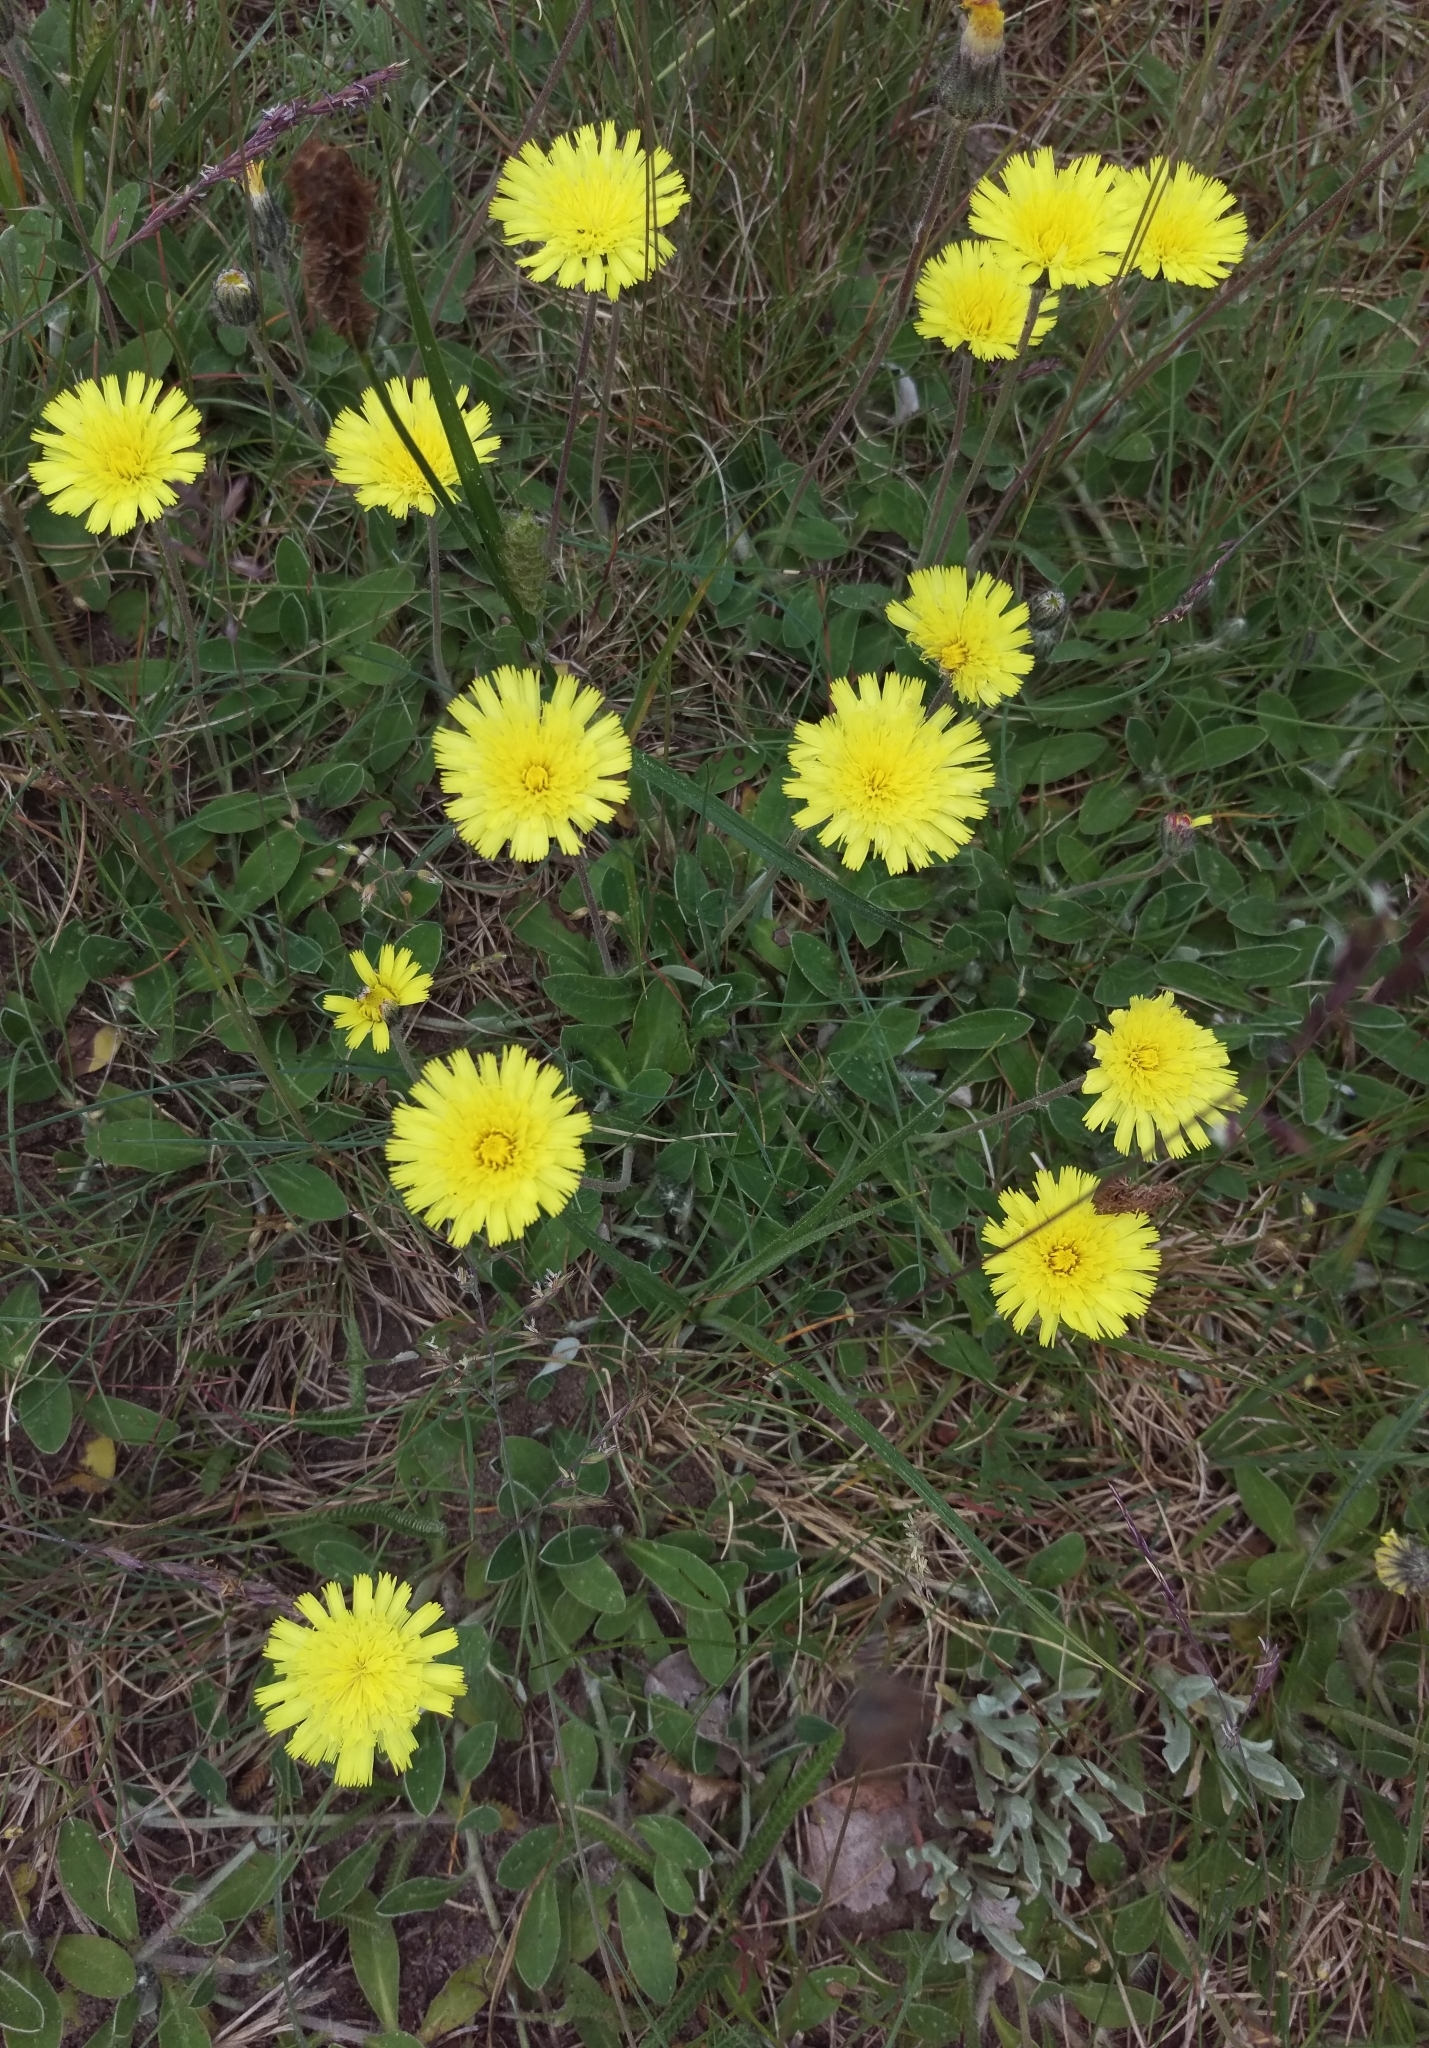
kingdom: Plantae
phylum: Tracheophyta
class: Magnoliopsida
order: Asterales
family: Asteraceae
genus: Pilosella
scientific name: Pilosella officinarum
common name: Mouse-ear hawkweed
